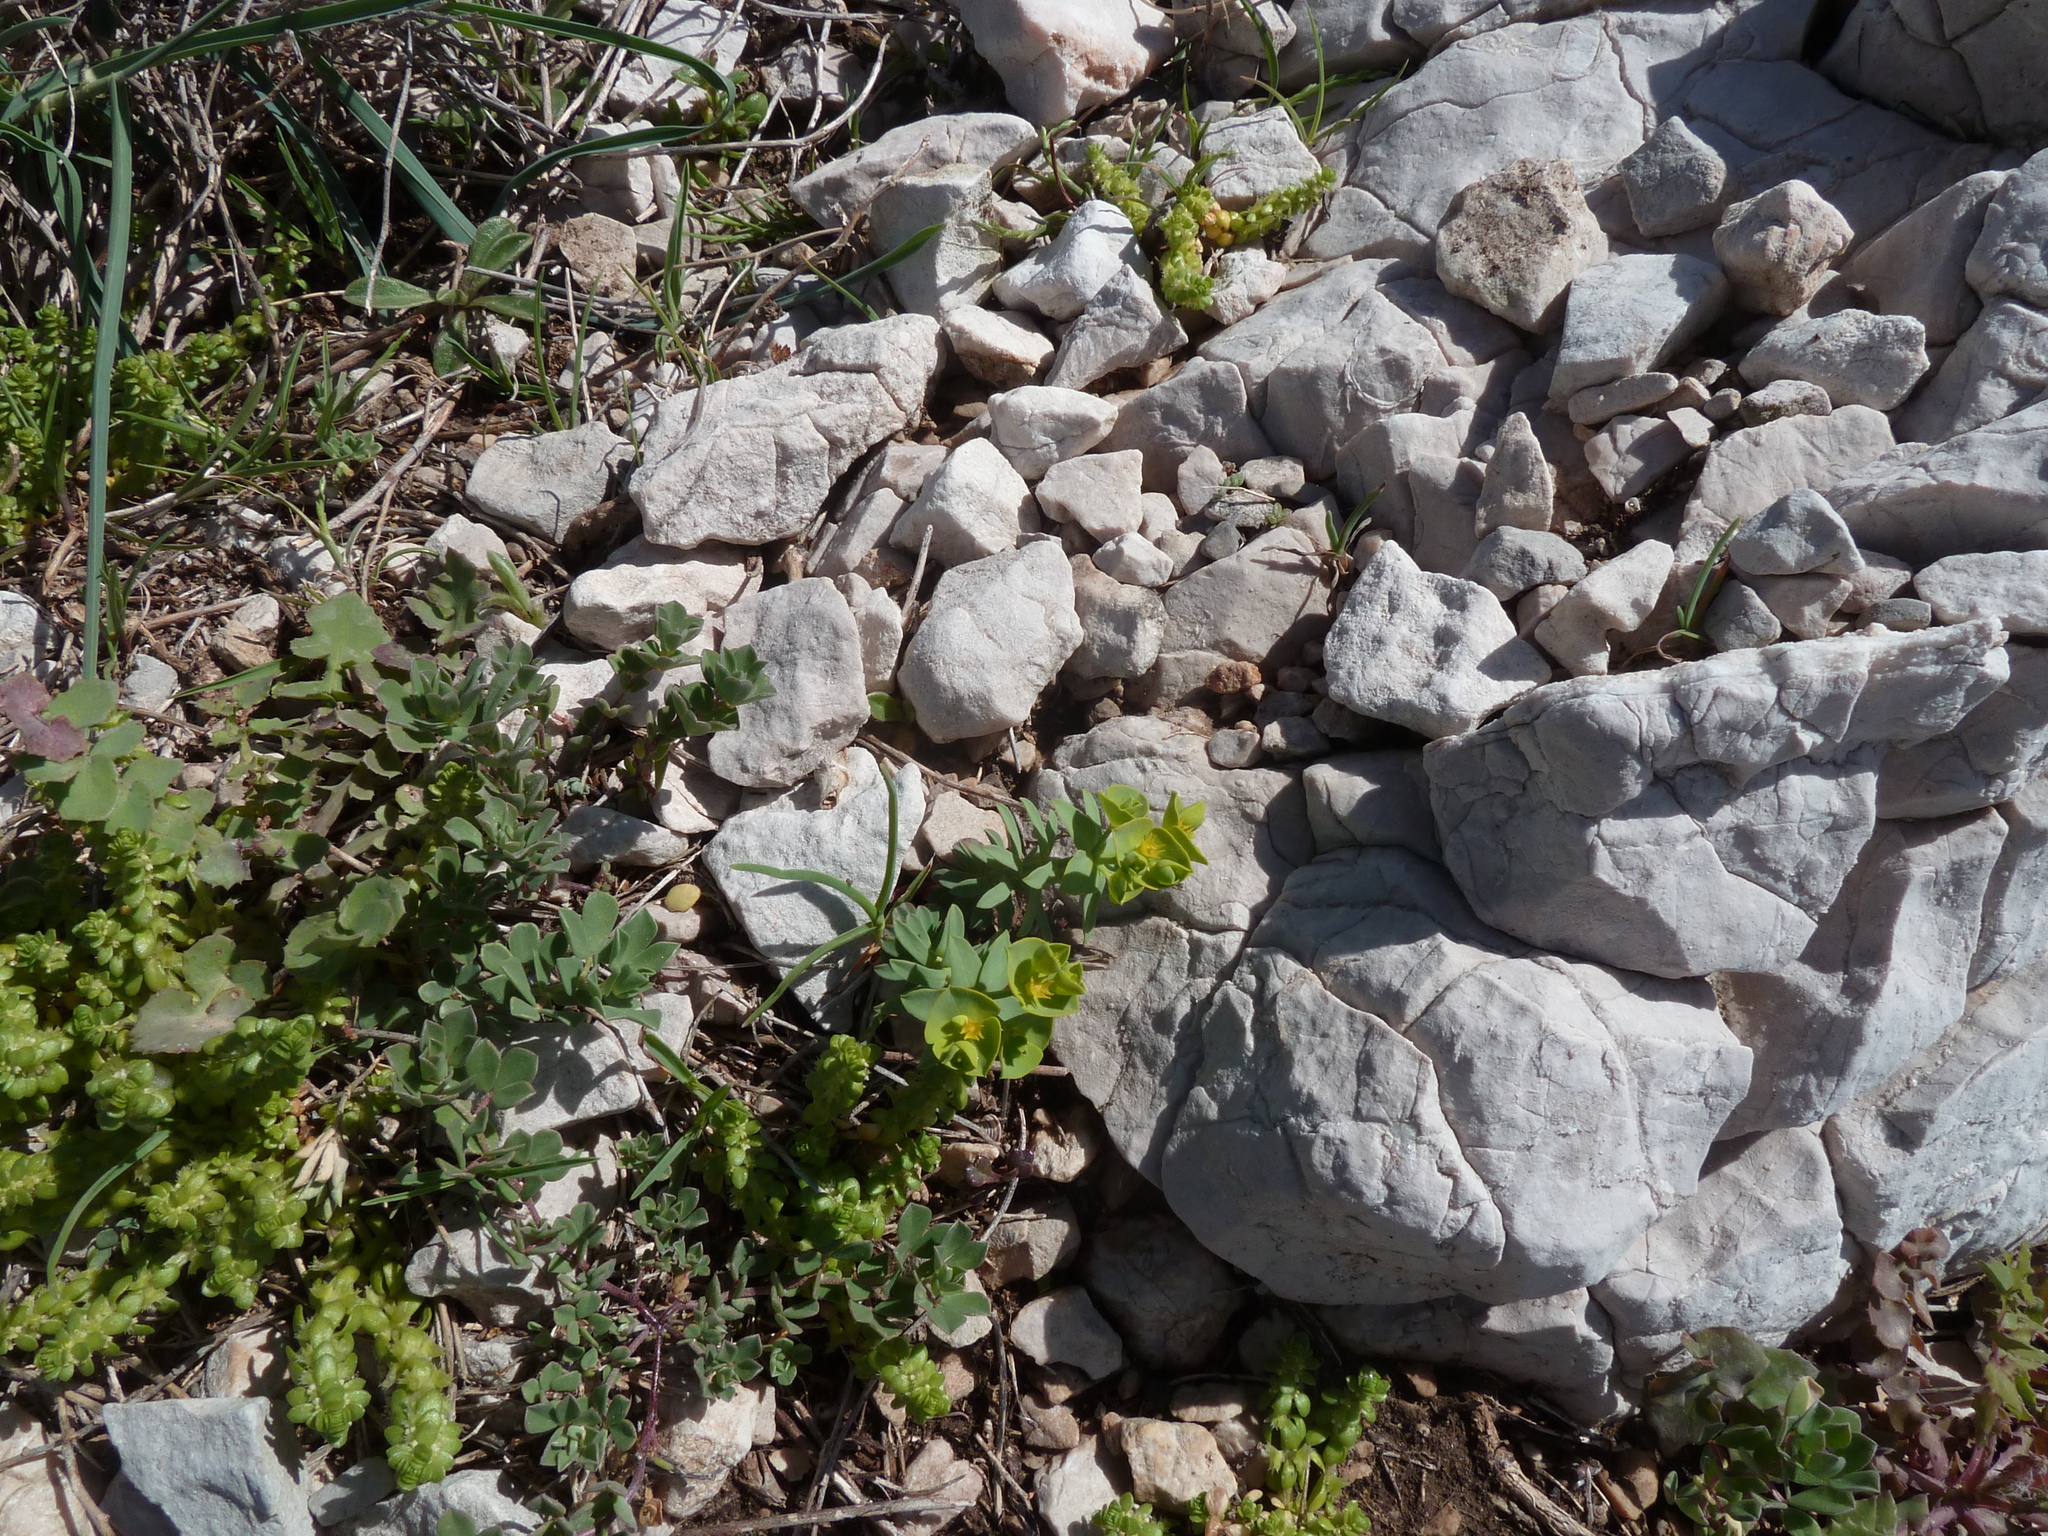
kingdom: Plantae
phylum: Tracheophyta
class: Magnoliopsida
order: Malpighiales
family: Euphorbiaceae
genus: Euphorbia
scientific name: Euphorbia segetalis
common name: Corn spurge
